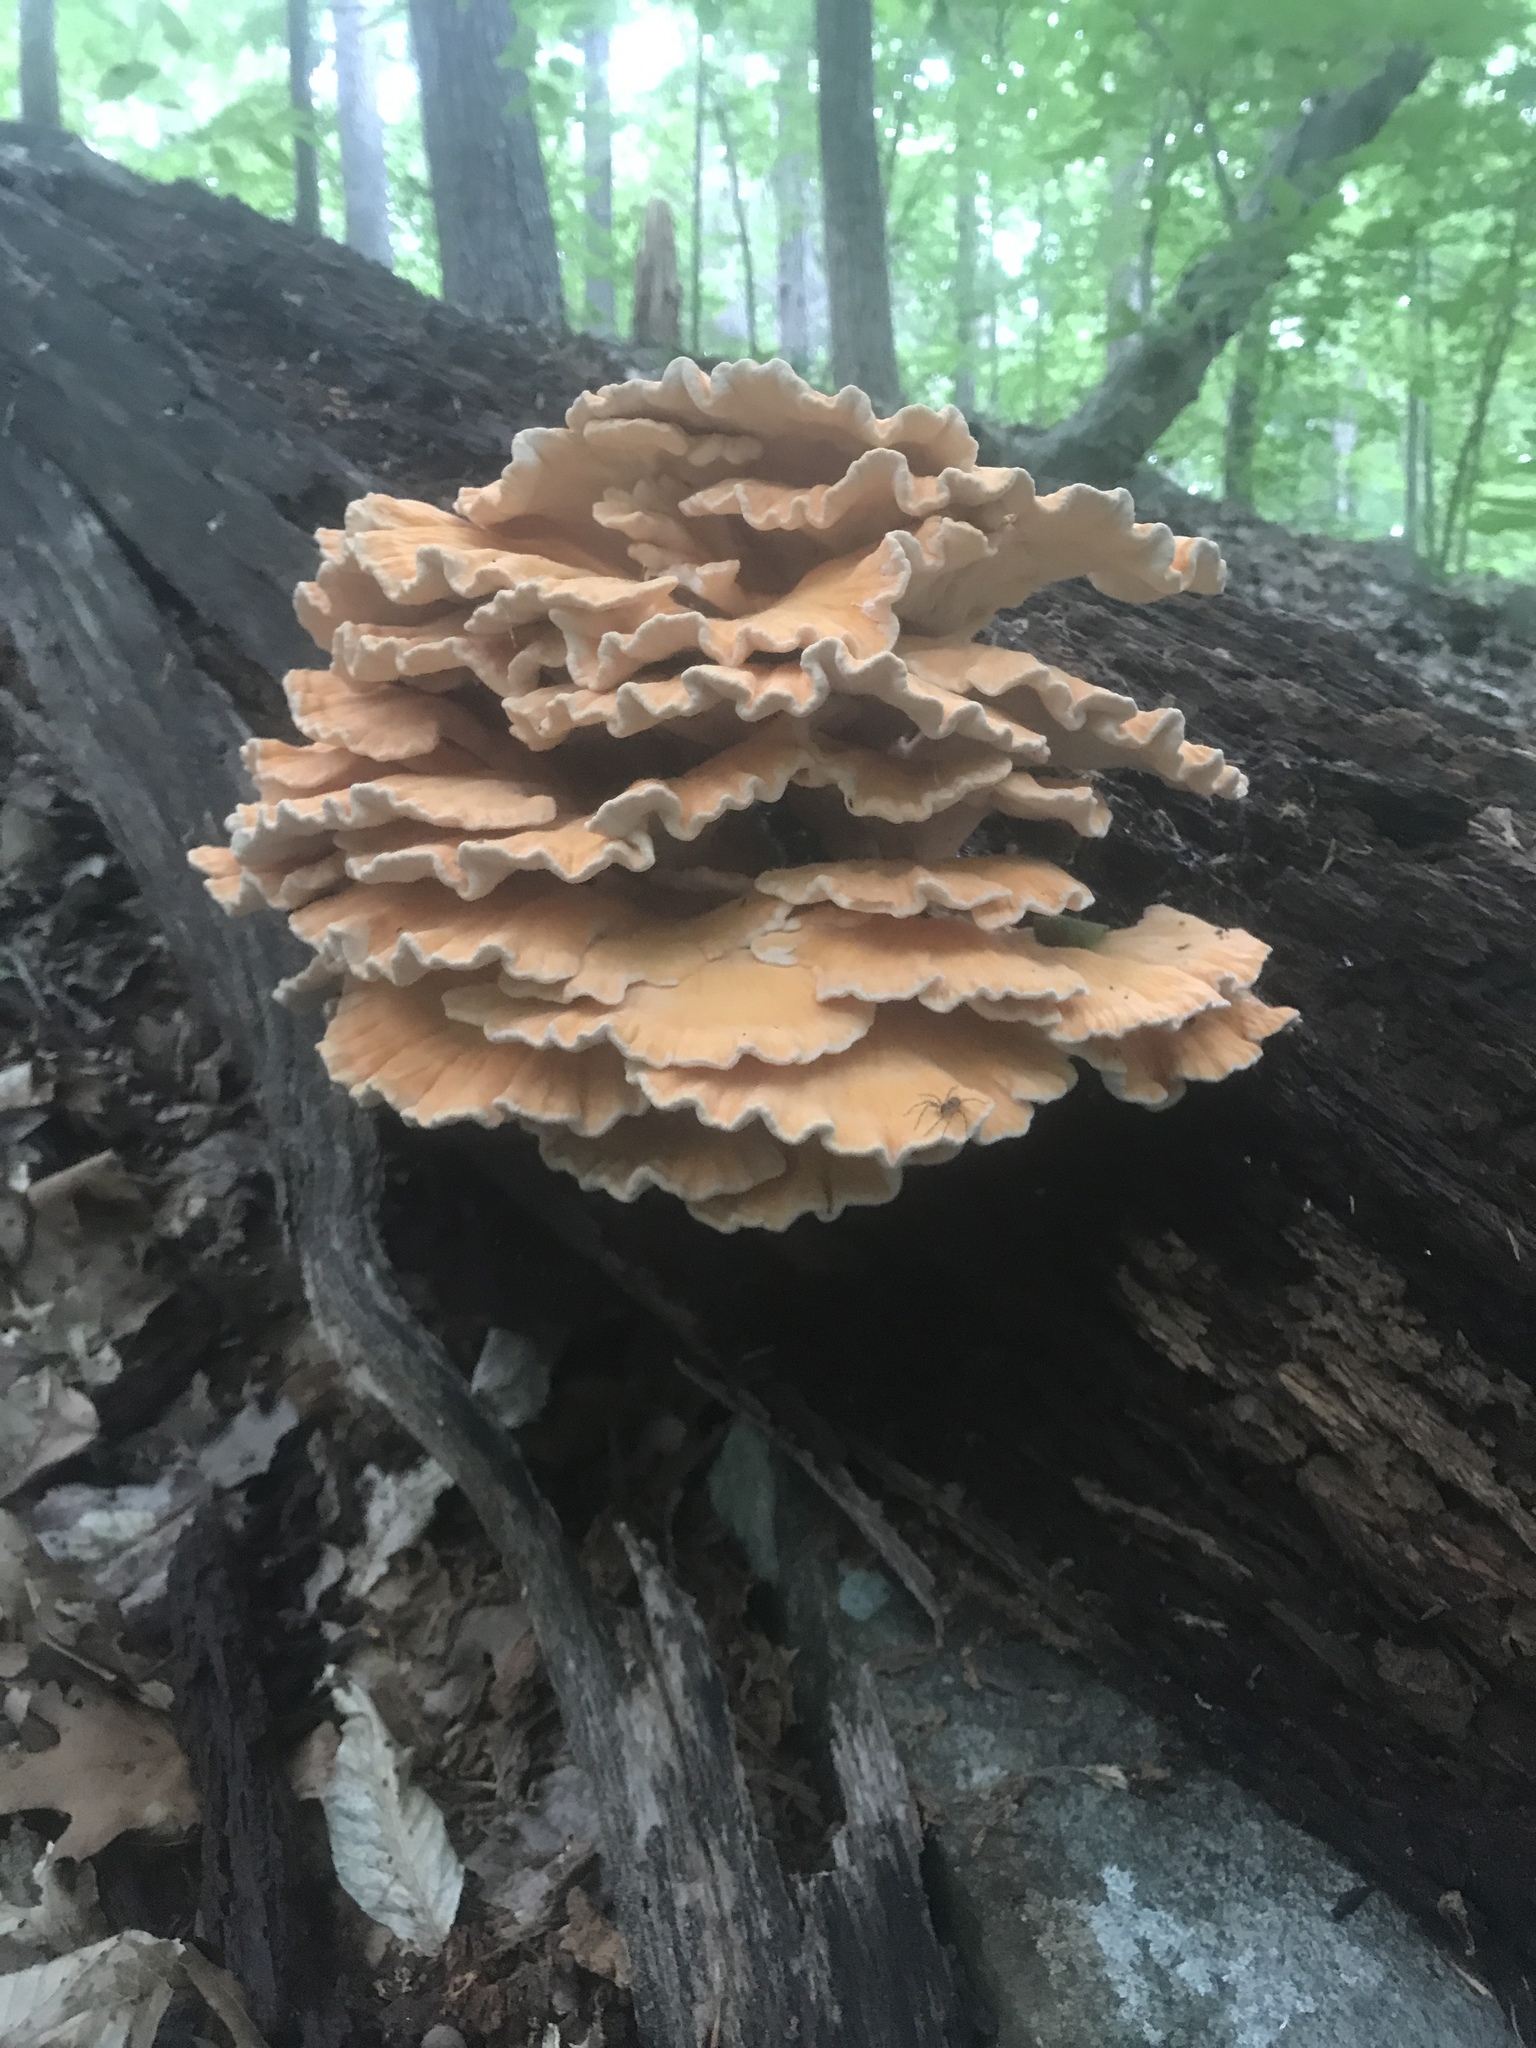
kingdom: Fungi
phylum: Basidiomycota
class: Agaricomycetes
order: Polyporales
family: Laetiporaceae
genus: Laetiporus
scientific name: Laetiporus sulphureus
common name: Chicken of the woods
